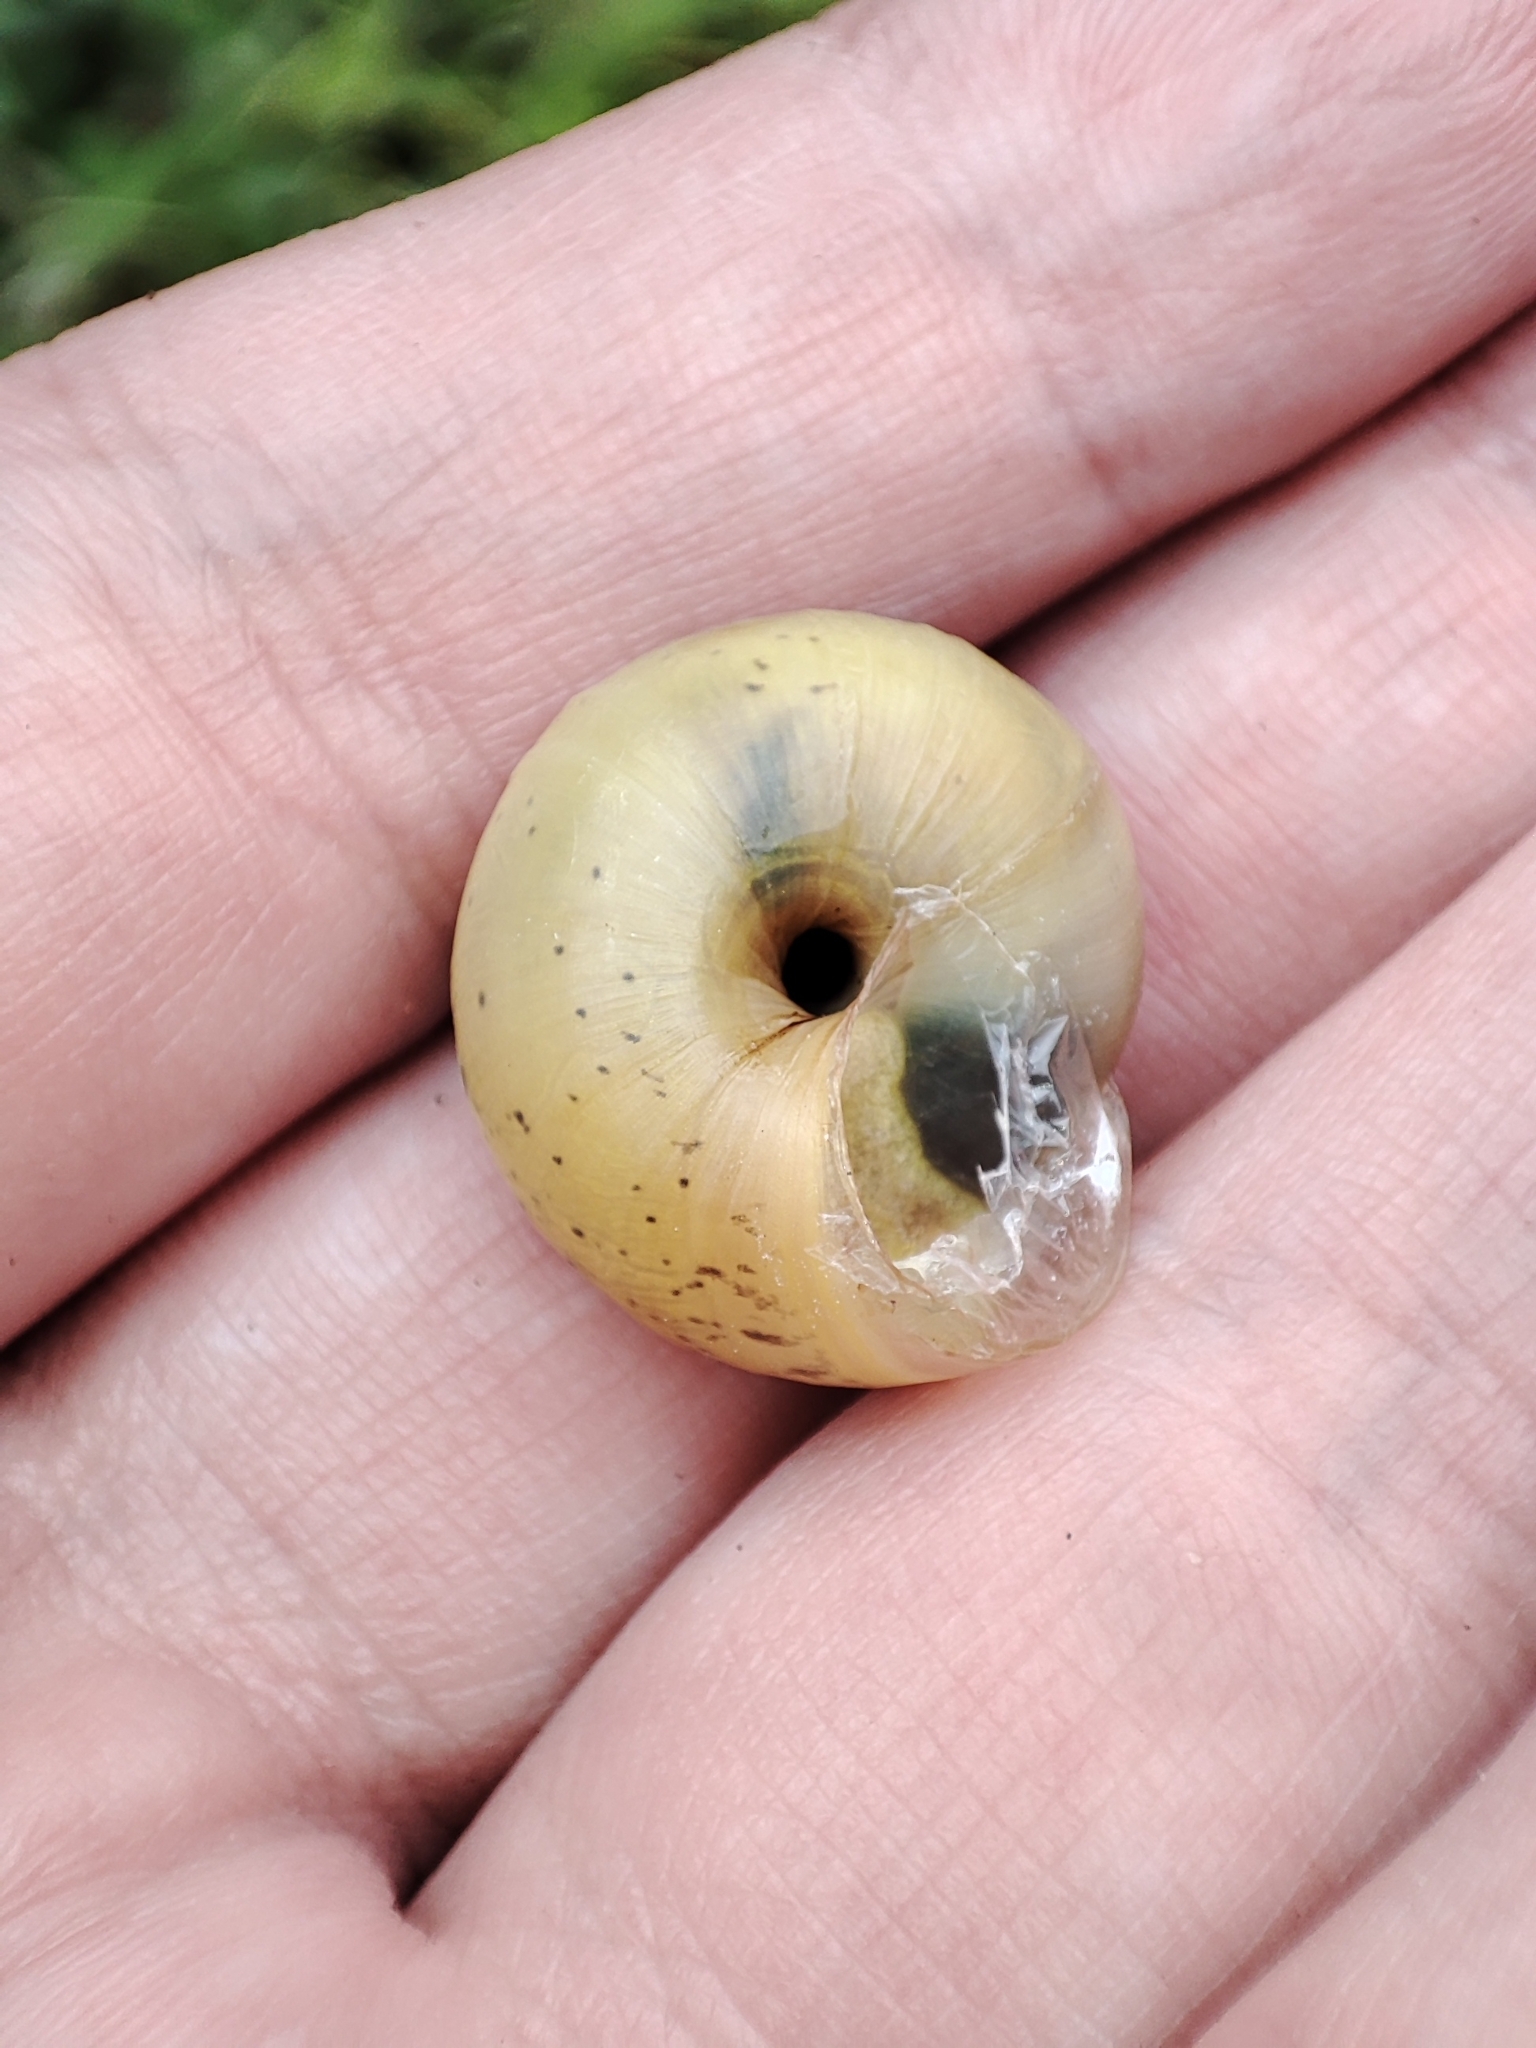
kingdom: Animalia
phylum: Mollusca
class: Gastropoda
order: Stylommatophora
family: Camaenidae
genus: Fruticicola
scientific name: Fruticicola fruticum
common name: Bush snail
